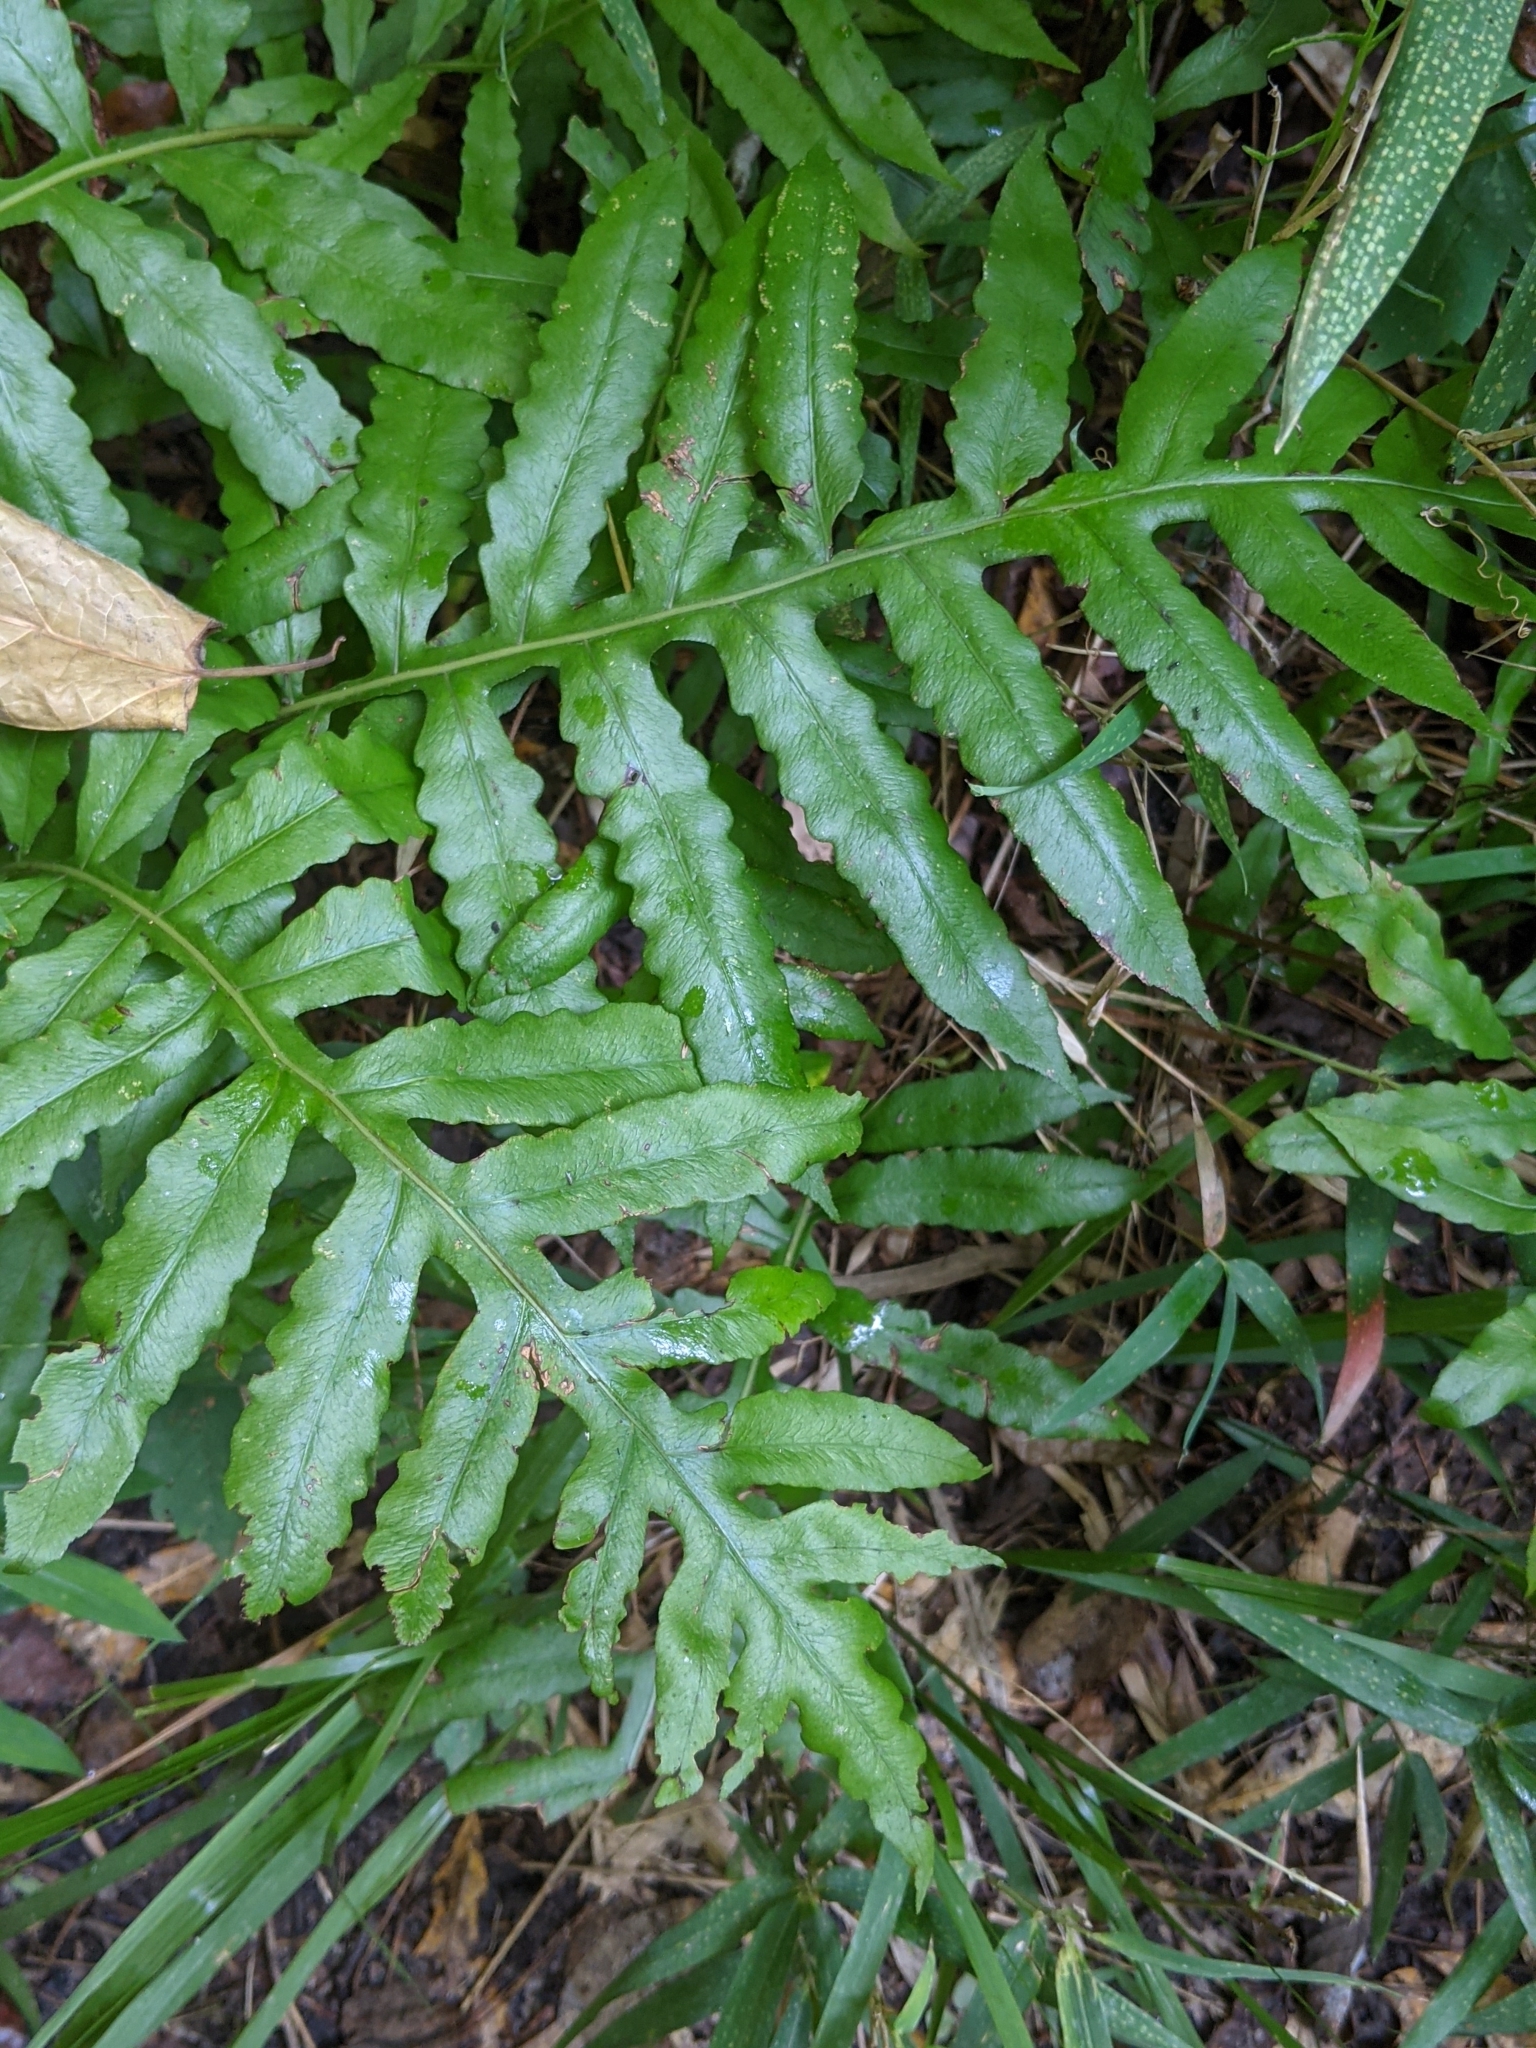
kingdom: Plantae
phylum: Tracheophyta
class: Polypodiopsida
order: Polypodiales
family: Blechnaceae
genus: Lorinseria
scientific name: Lorinseria areolata
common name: Dwarf chain fern
